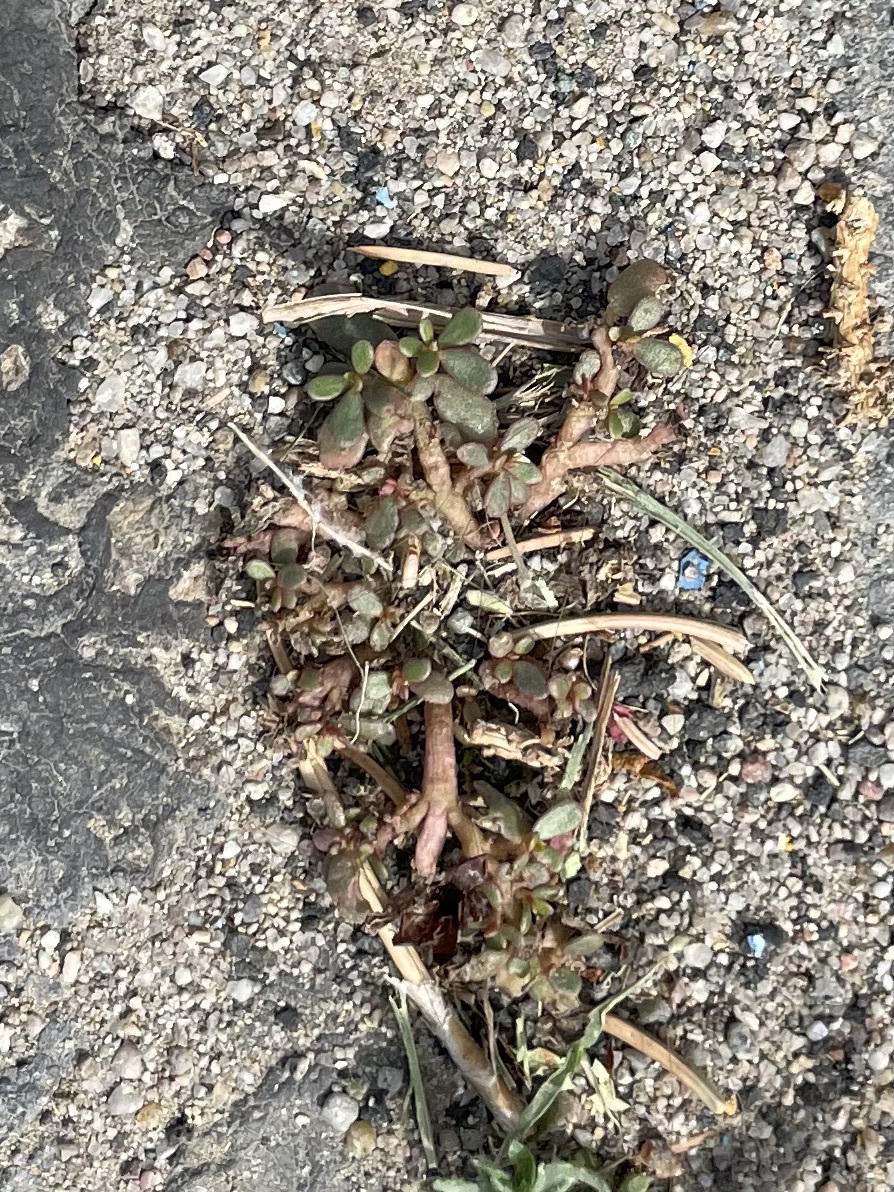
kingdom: Plantae
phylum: Tracheophyta
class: Magnoliopsida
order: Caryophyllales
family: Portulacaceae
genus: Portulaca
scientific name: Portulaca oleracea
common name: Common purslane
